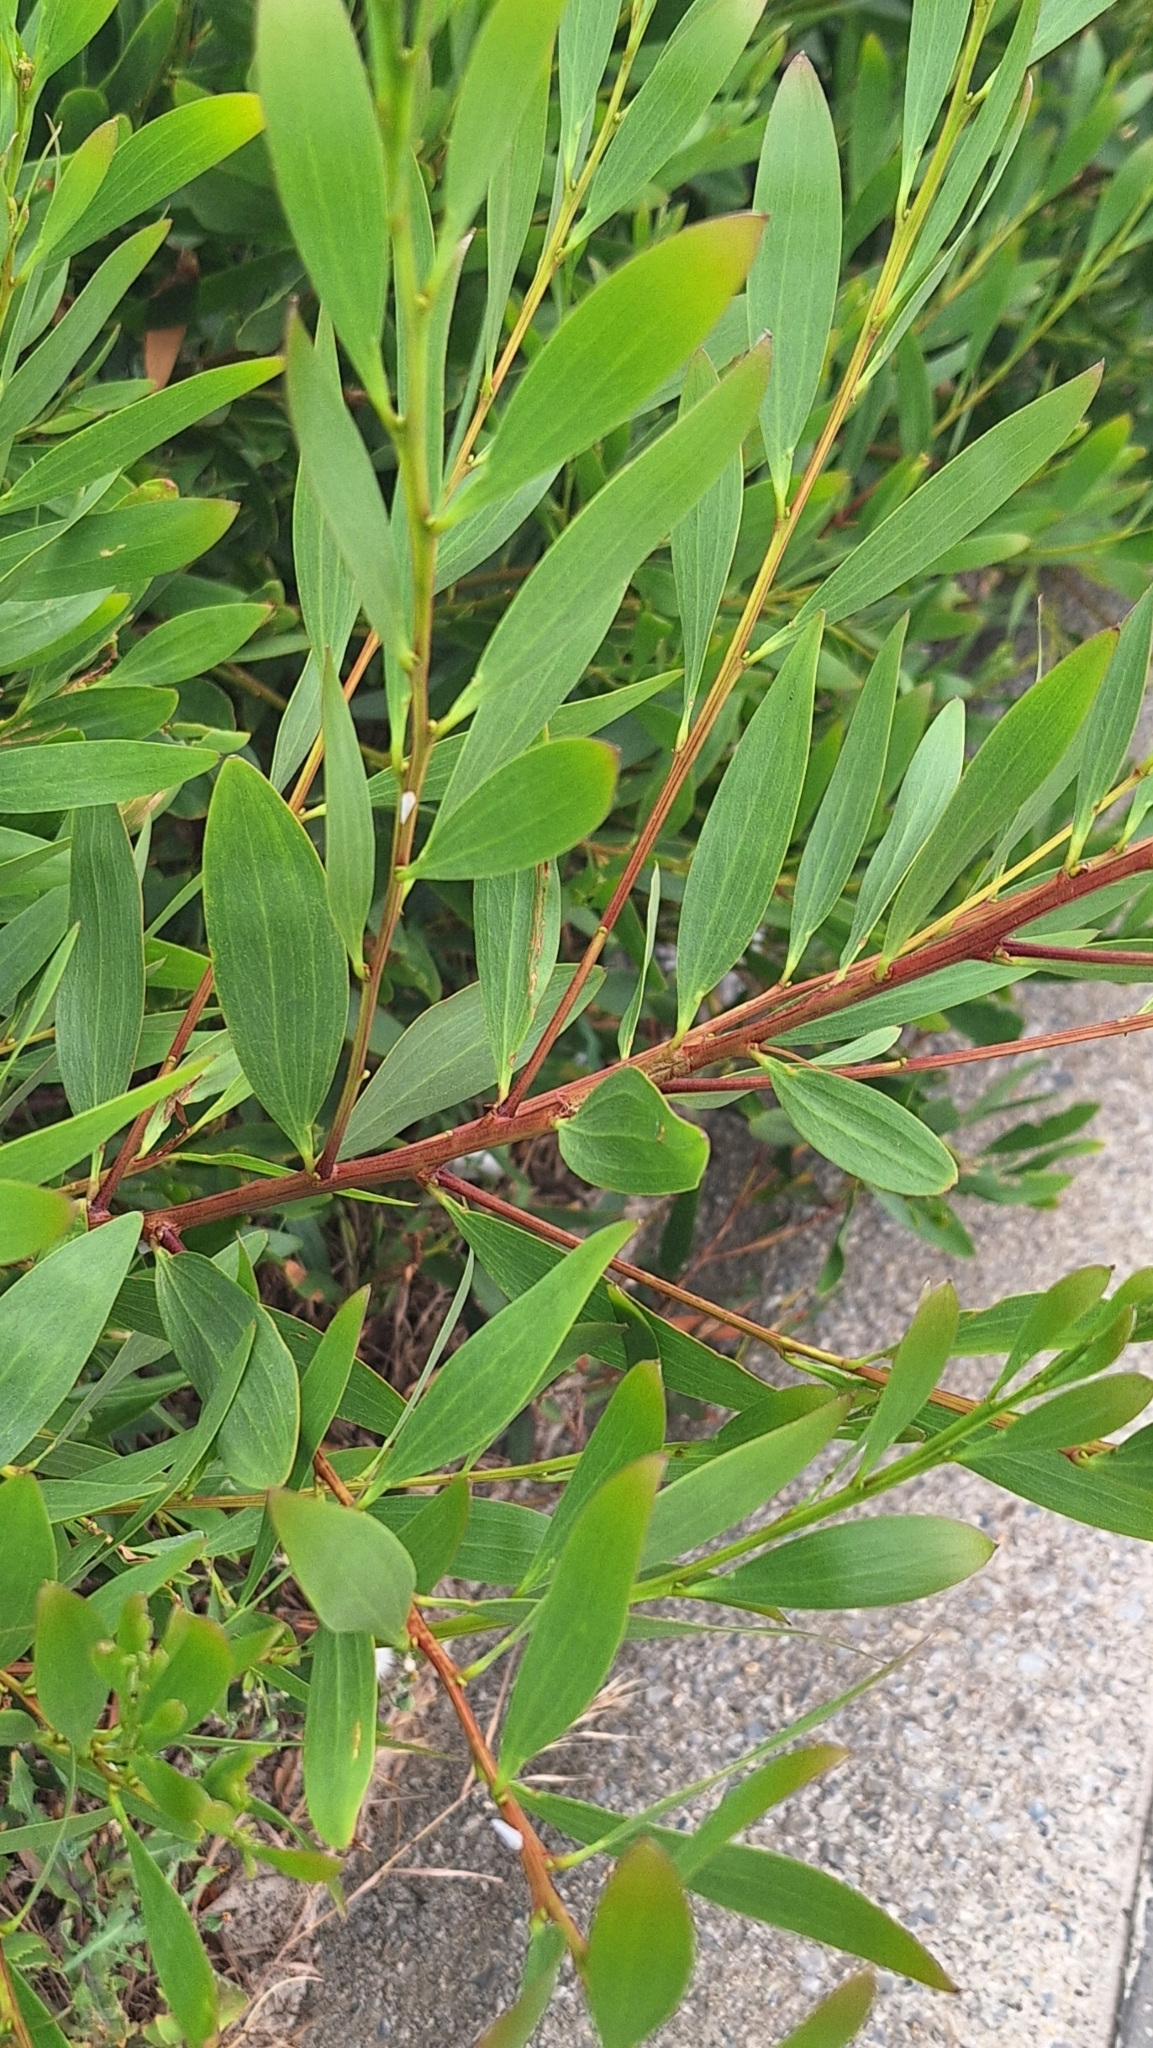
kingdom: Plantae
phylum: Tracheophyta
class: Magnoliopsida
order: Fabales
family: Fabaceae
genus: Acacia
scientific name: Acacia longifolia
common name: Sydney golden wattle
